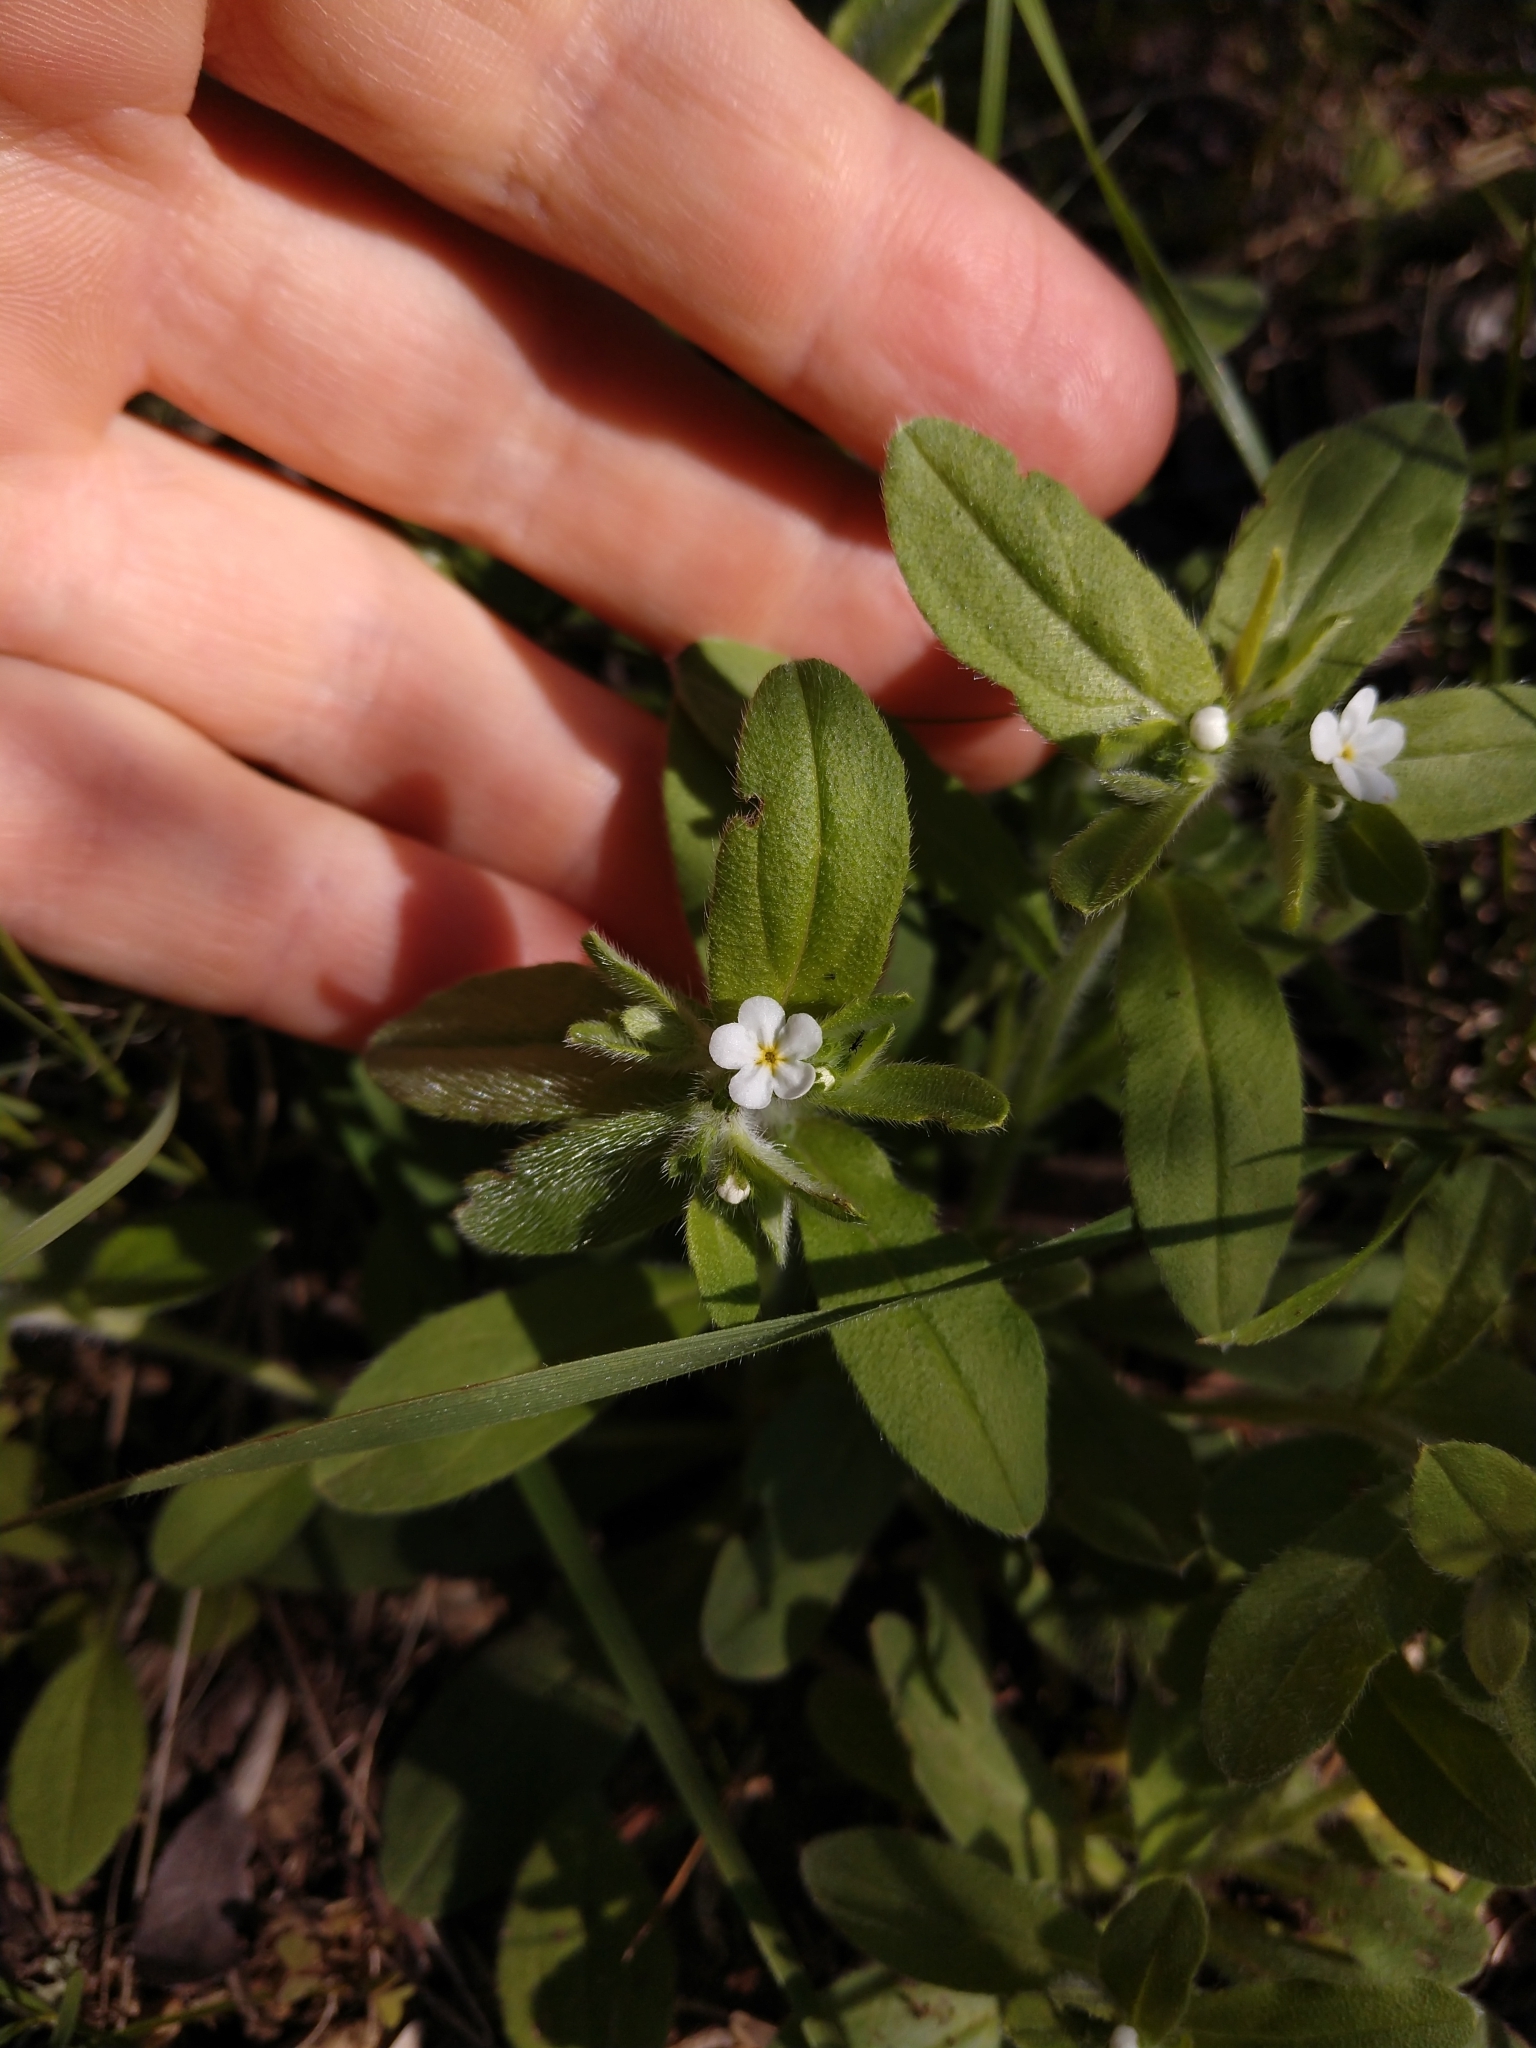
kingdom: Plantae
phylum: Tracheophyta
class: Magnoliopsida
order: Boraginales
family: Boraginaceae
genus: Lithospermum
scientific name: Lithospermum matamorense
